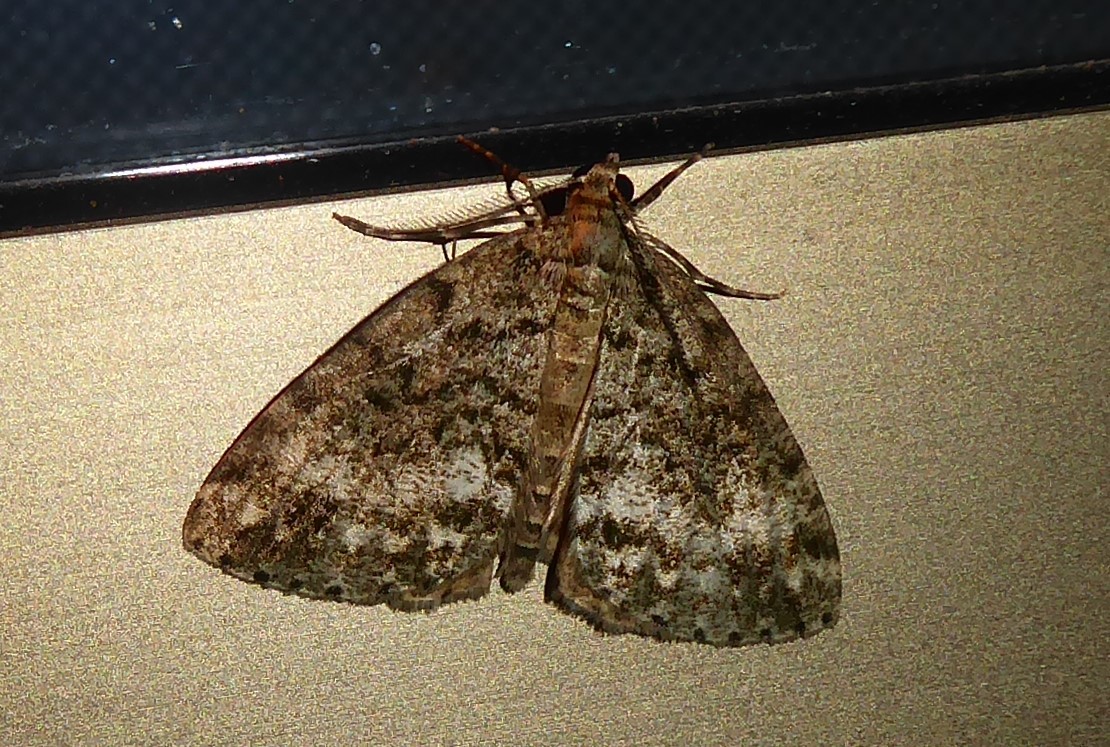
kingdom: Animalia
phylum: Arthropoda
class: Insecta
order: Lepidoptera
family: Geometridae
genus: Pseudocoremia
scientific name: Pseudocoremia indistincta
